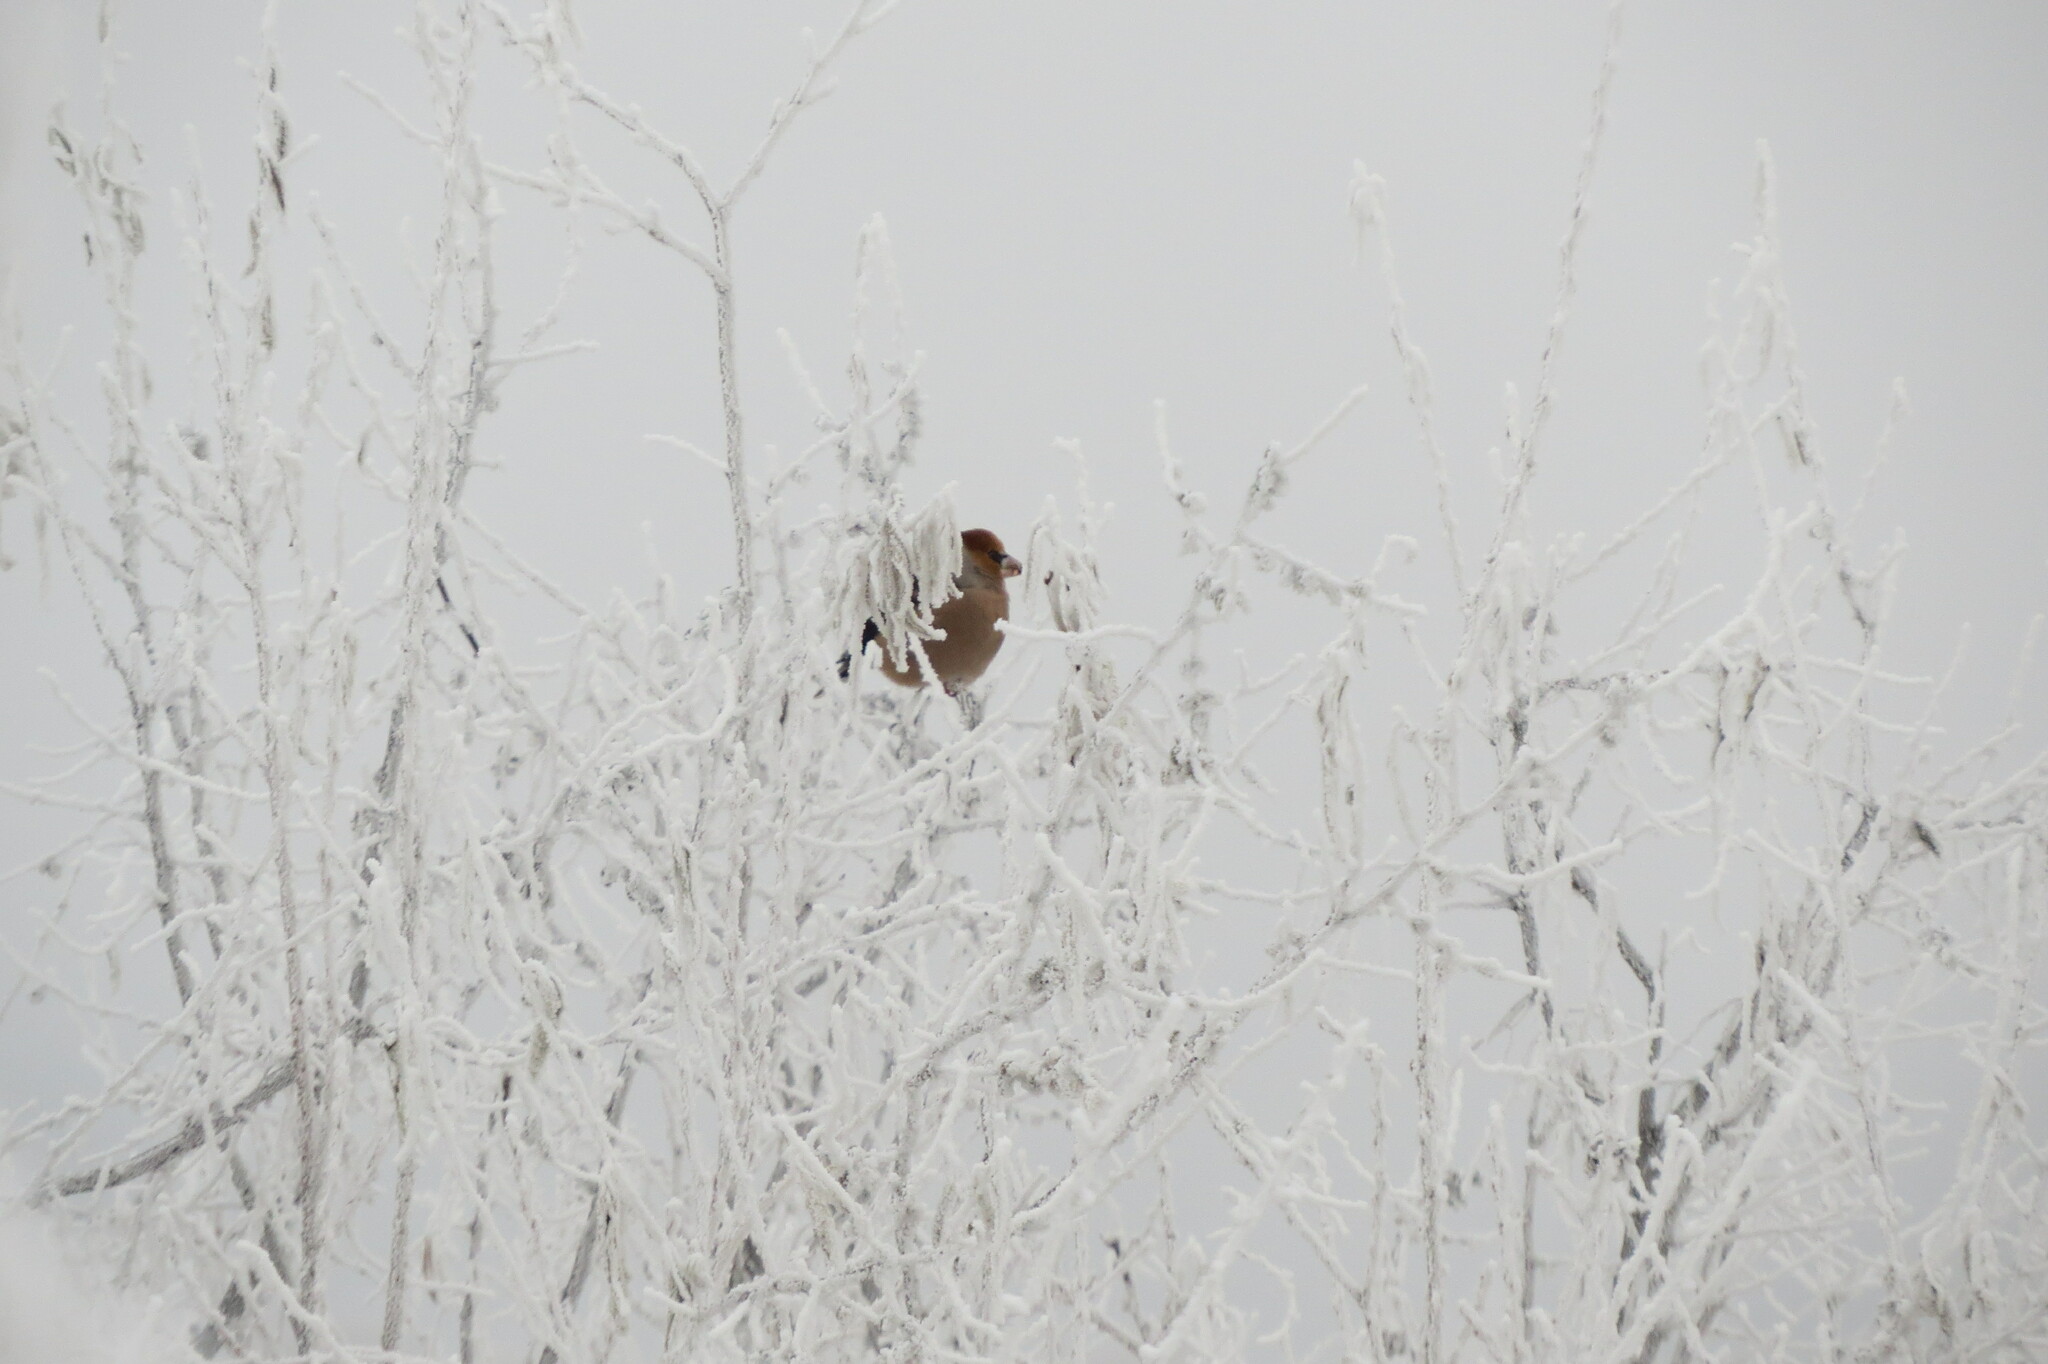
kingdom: Animalia
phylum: Chordata
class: Aves
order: Passeriformes
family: Fringillidae
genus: Coccothraustes
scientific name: Coccothraustes coccothraustes
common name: Hawfinch
